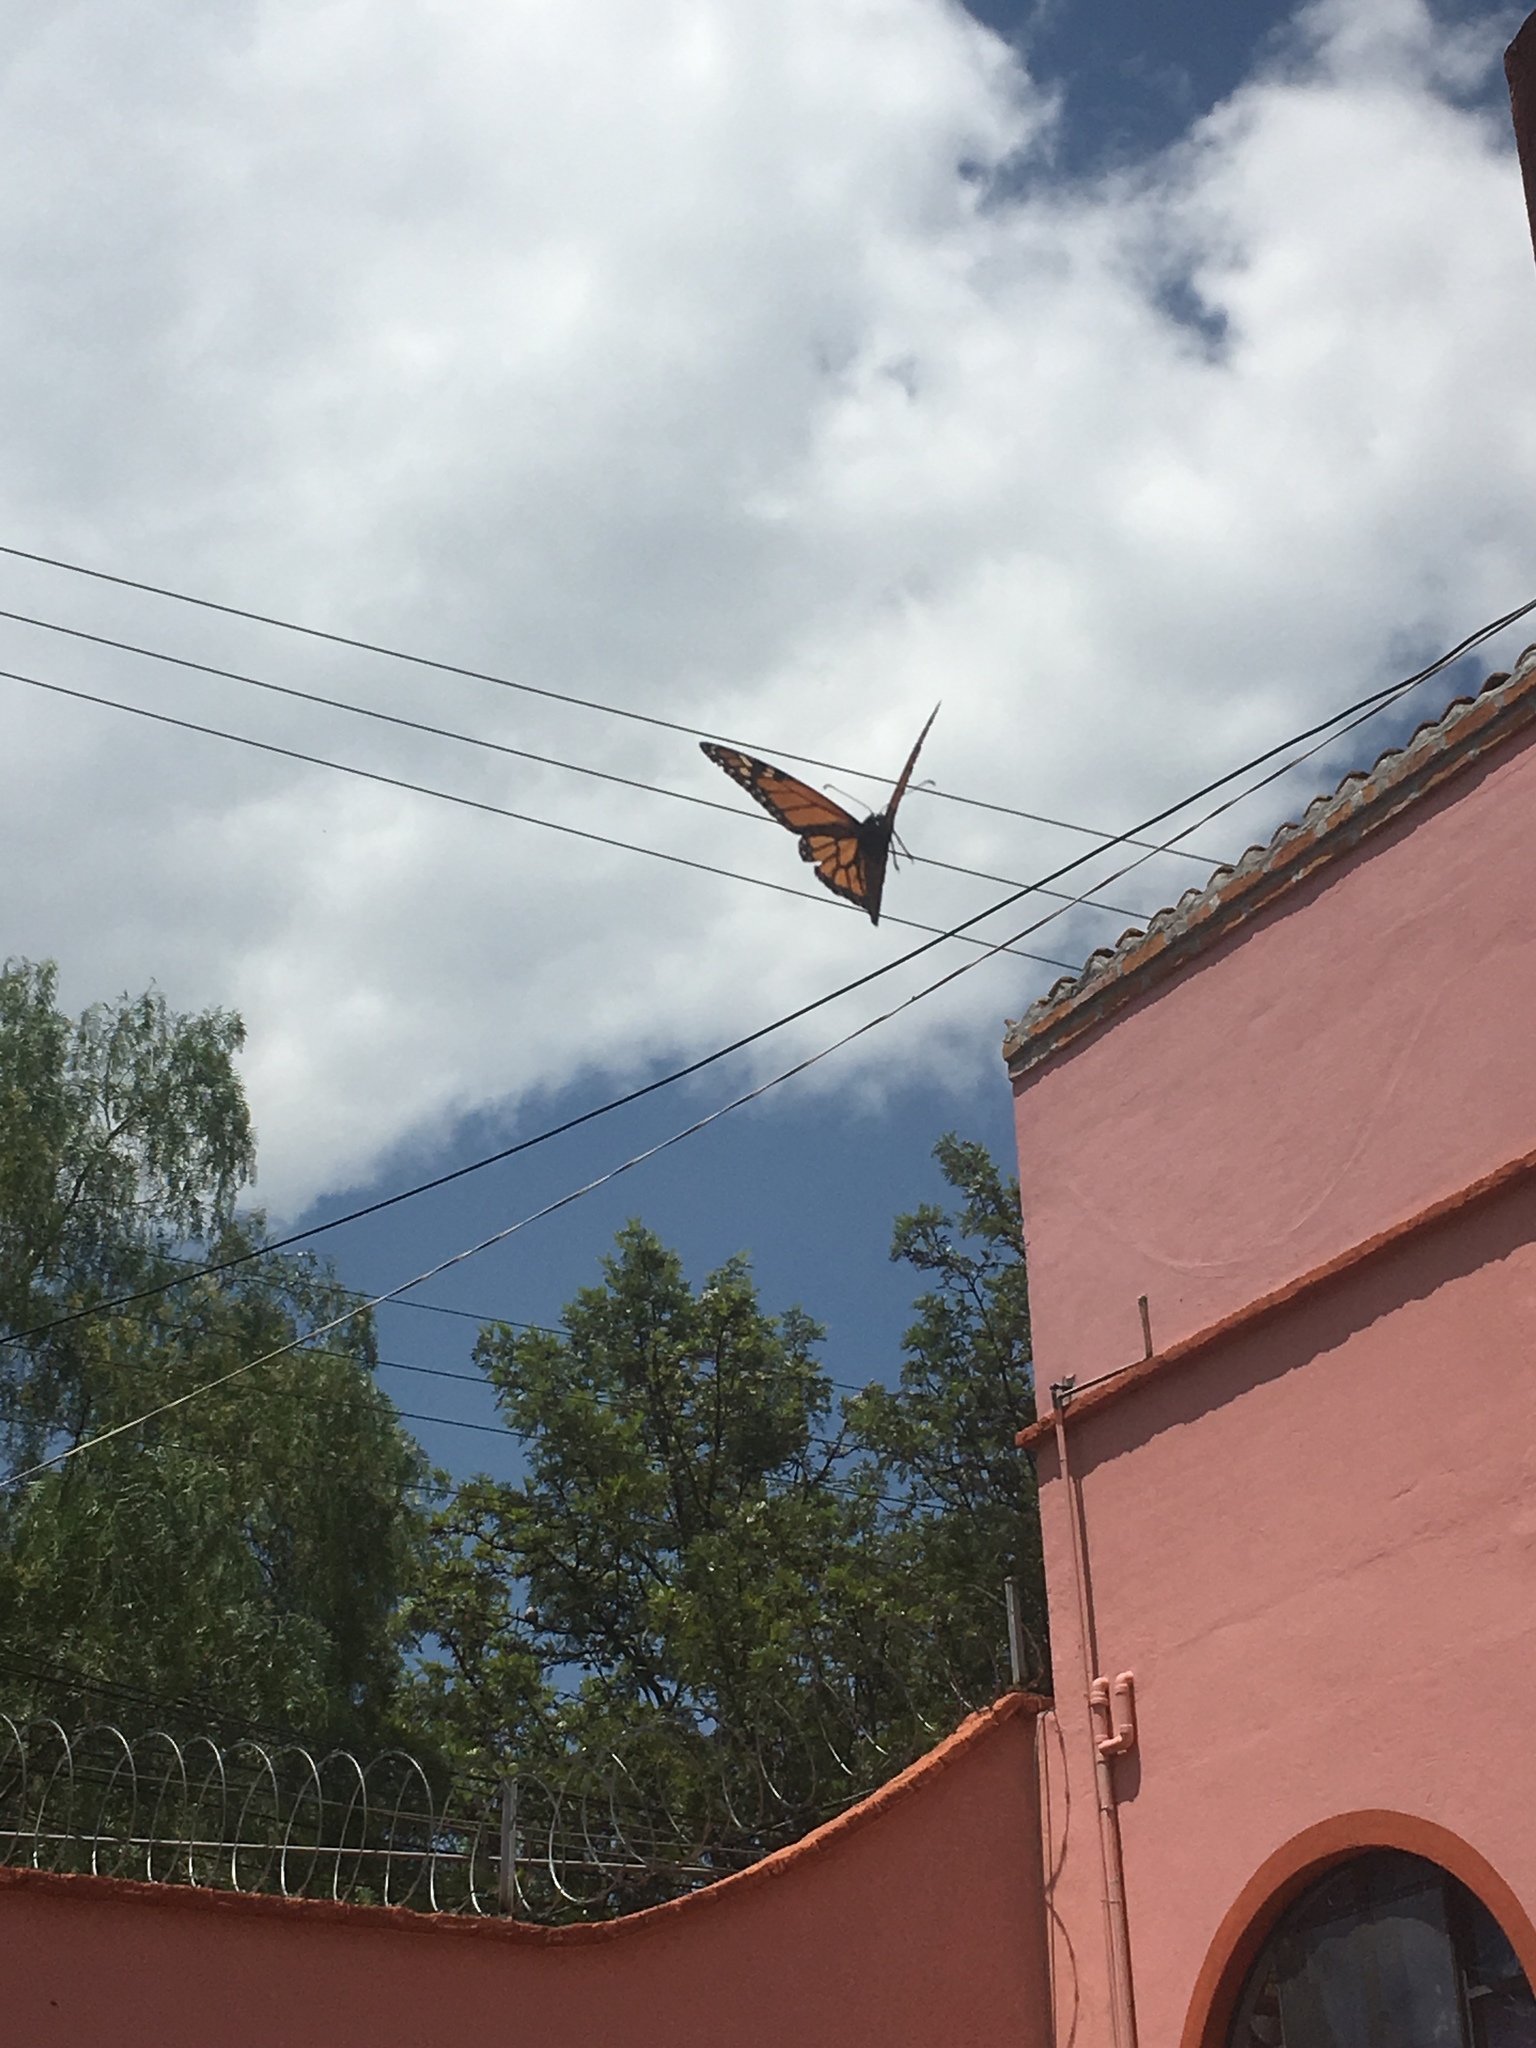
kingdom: Animalia
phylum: Arthropoda
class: Insecta
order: Lepidoptera
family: Nymphalidae
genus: Danaus
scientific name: Danaus plexippus
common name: Monarch
